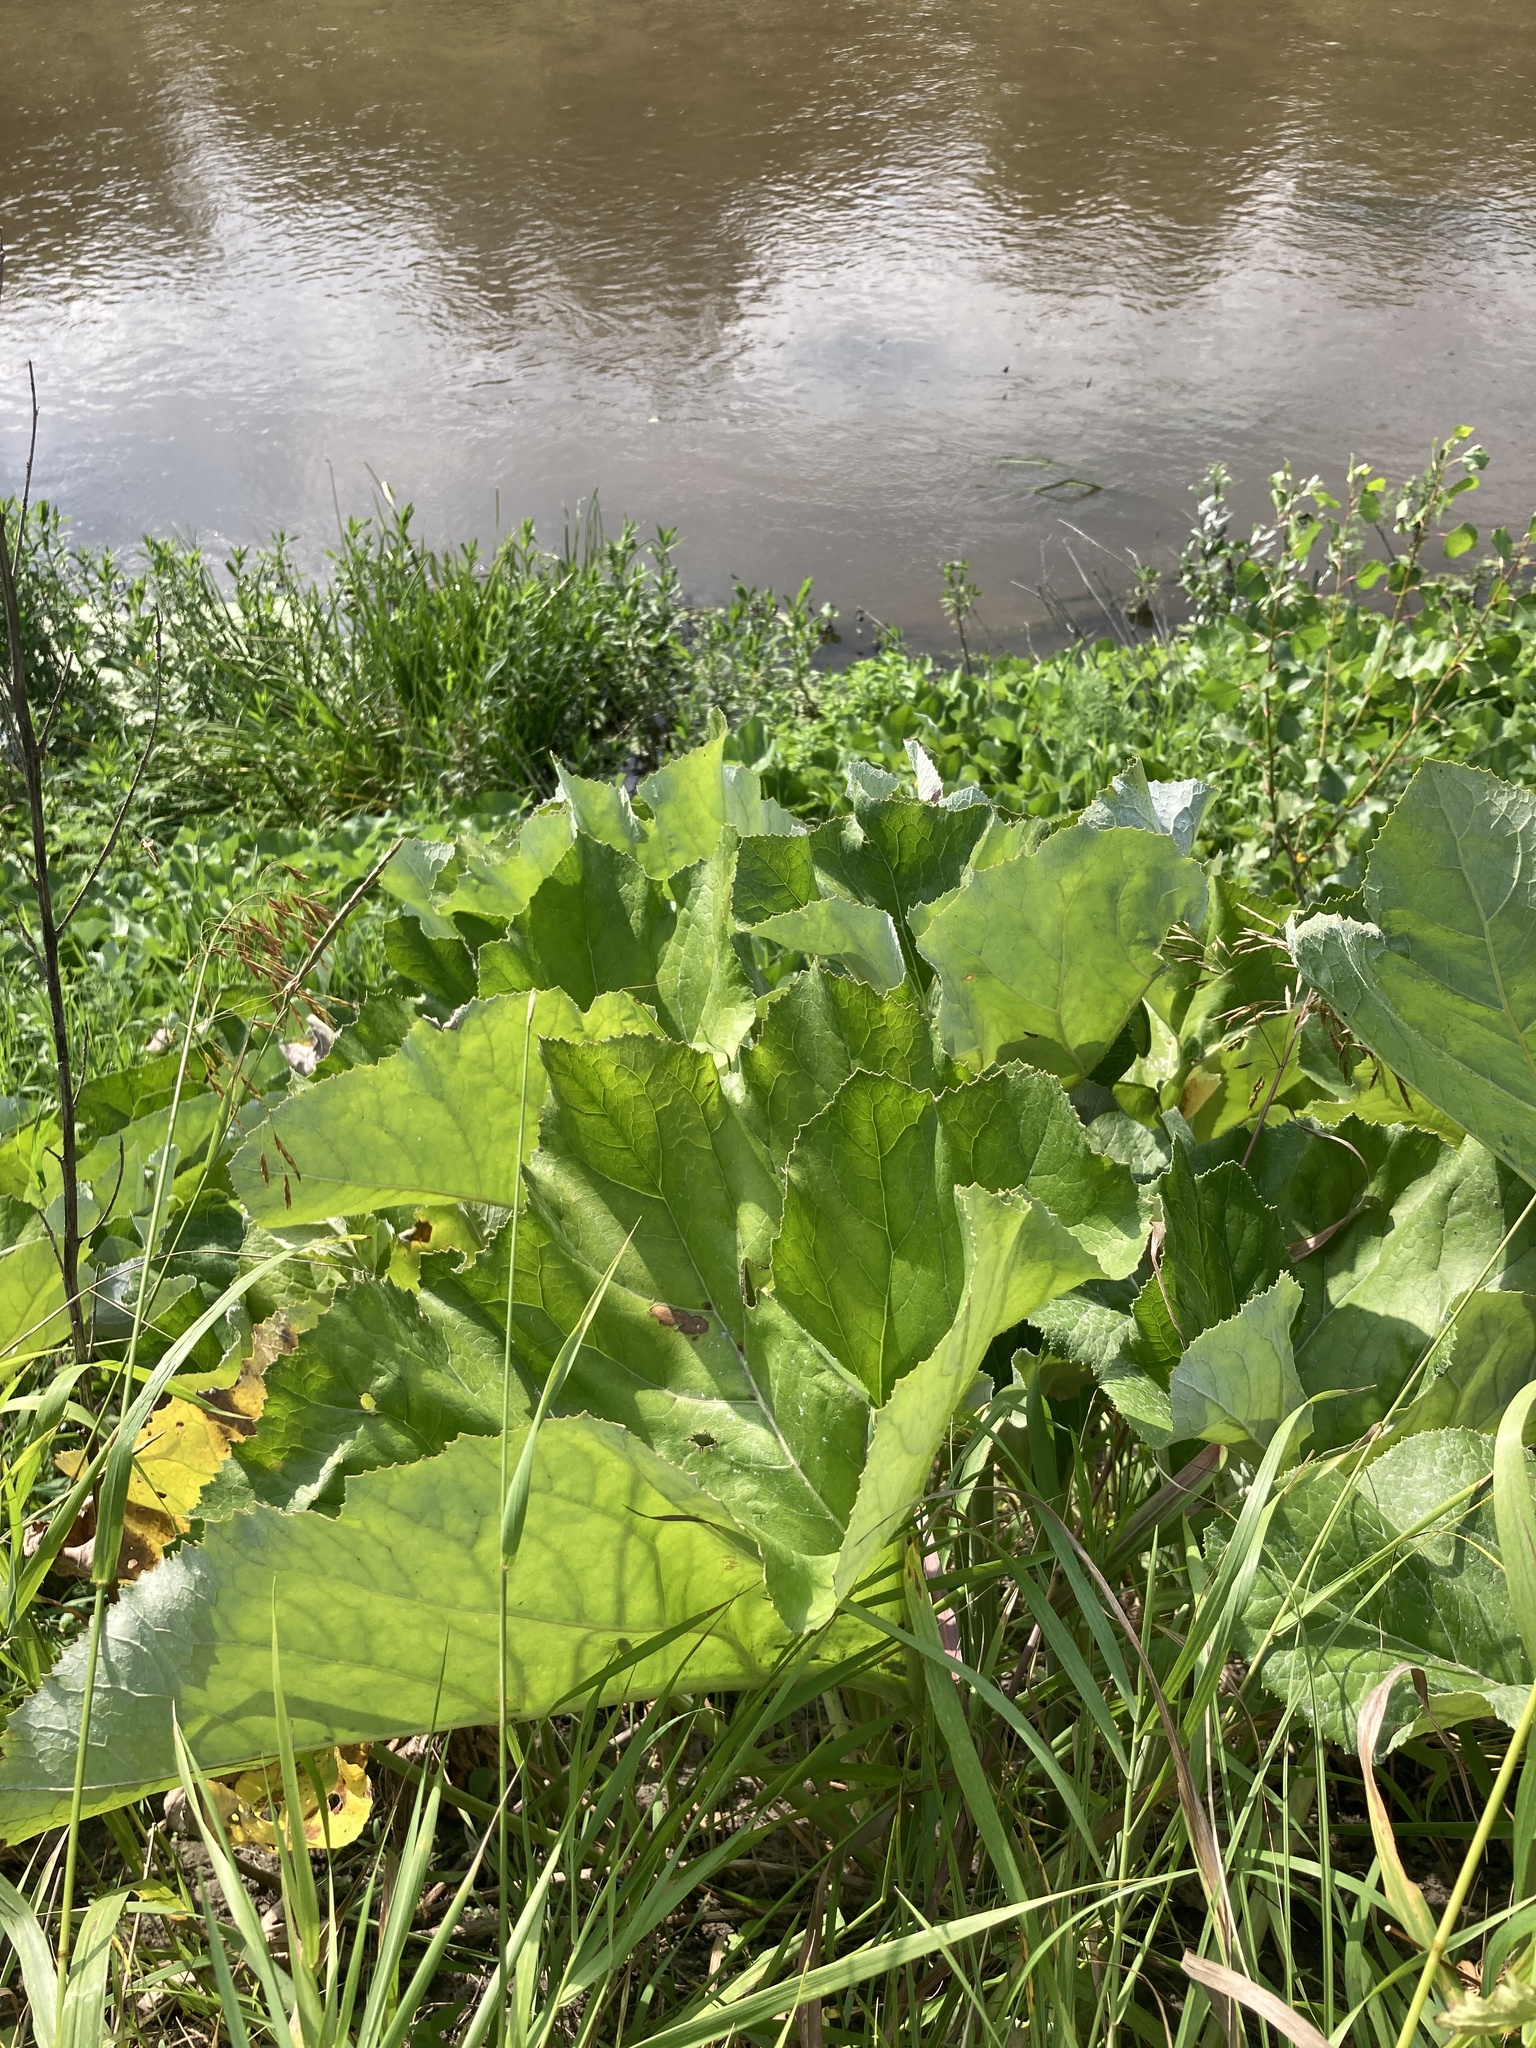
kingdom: Plantae
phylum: Tracheophyta
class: Magnoliopsida
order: Asterales
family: Asteraceae
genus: Petasites
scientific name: Petasites spurius
